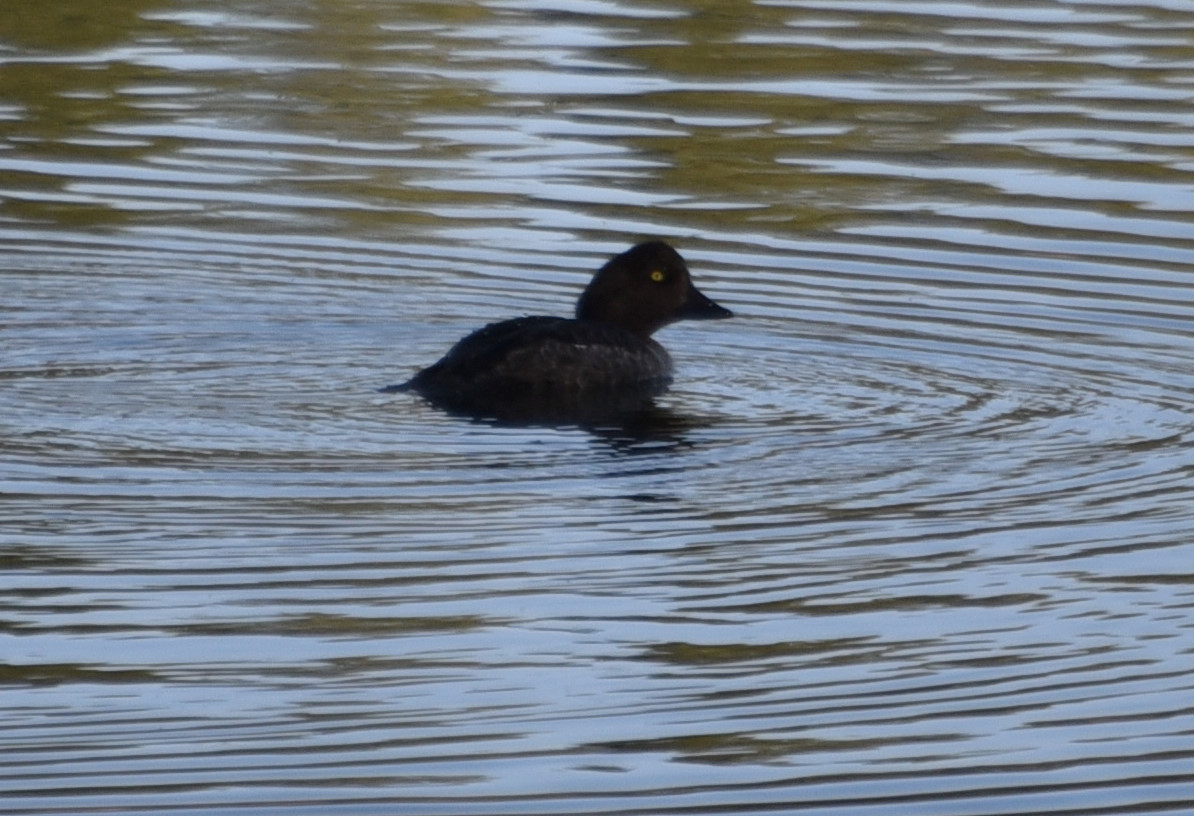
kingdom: Animalia
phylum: Chordata
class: Aves
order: Anseriformes
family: Anatidae
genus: Bucephala
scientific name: Bucephala clangula
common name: Common goldeneye
